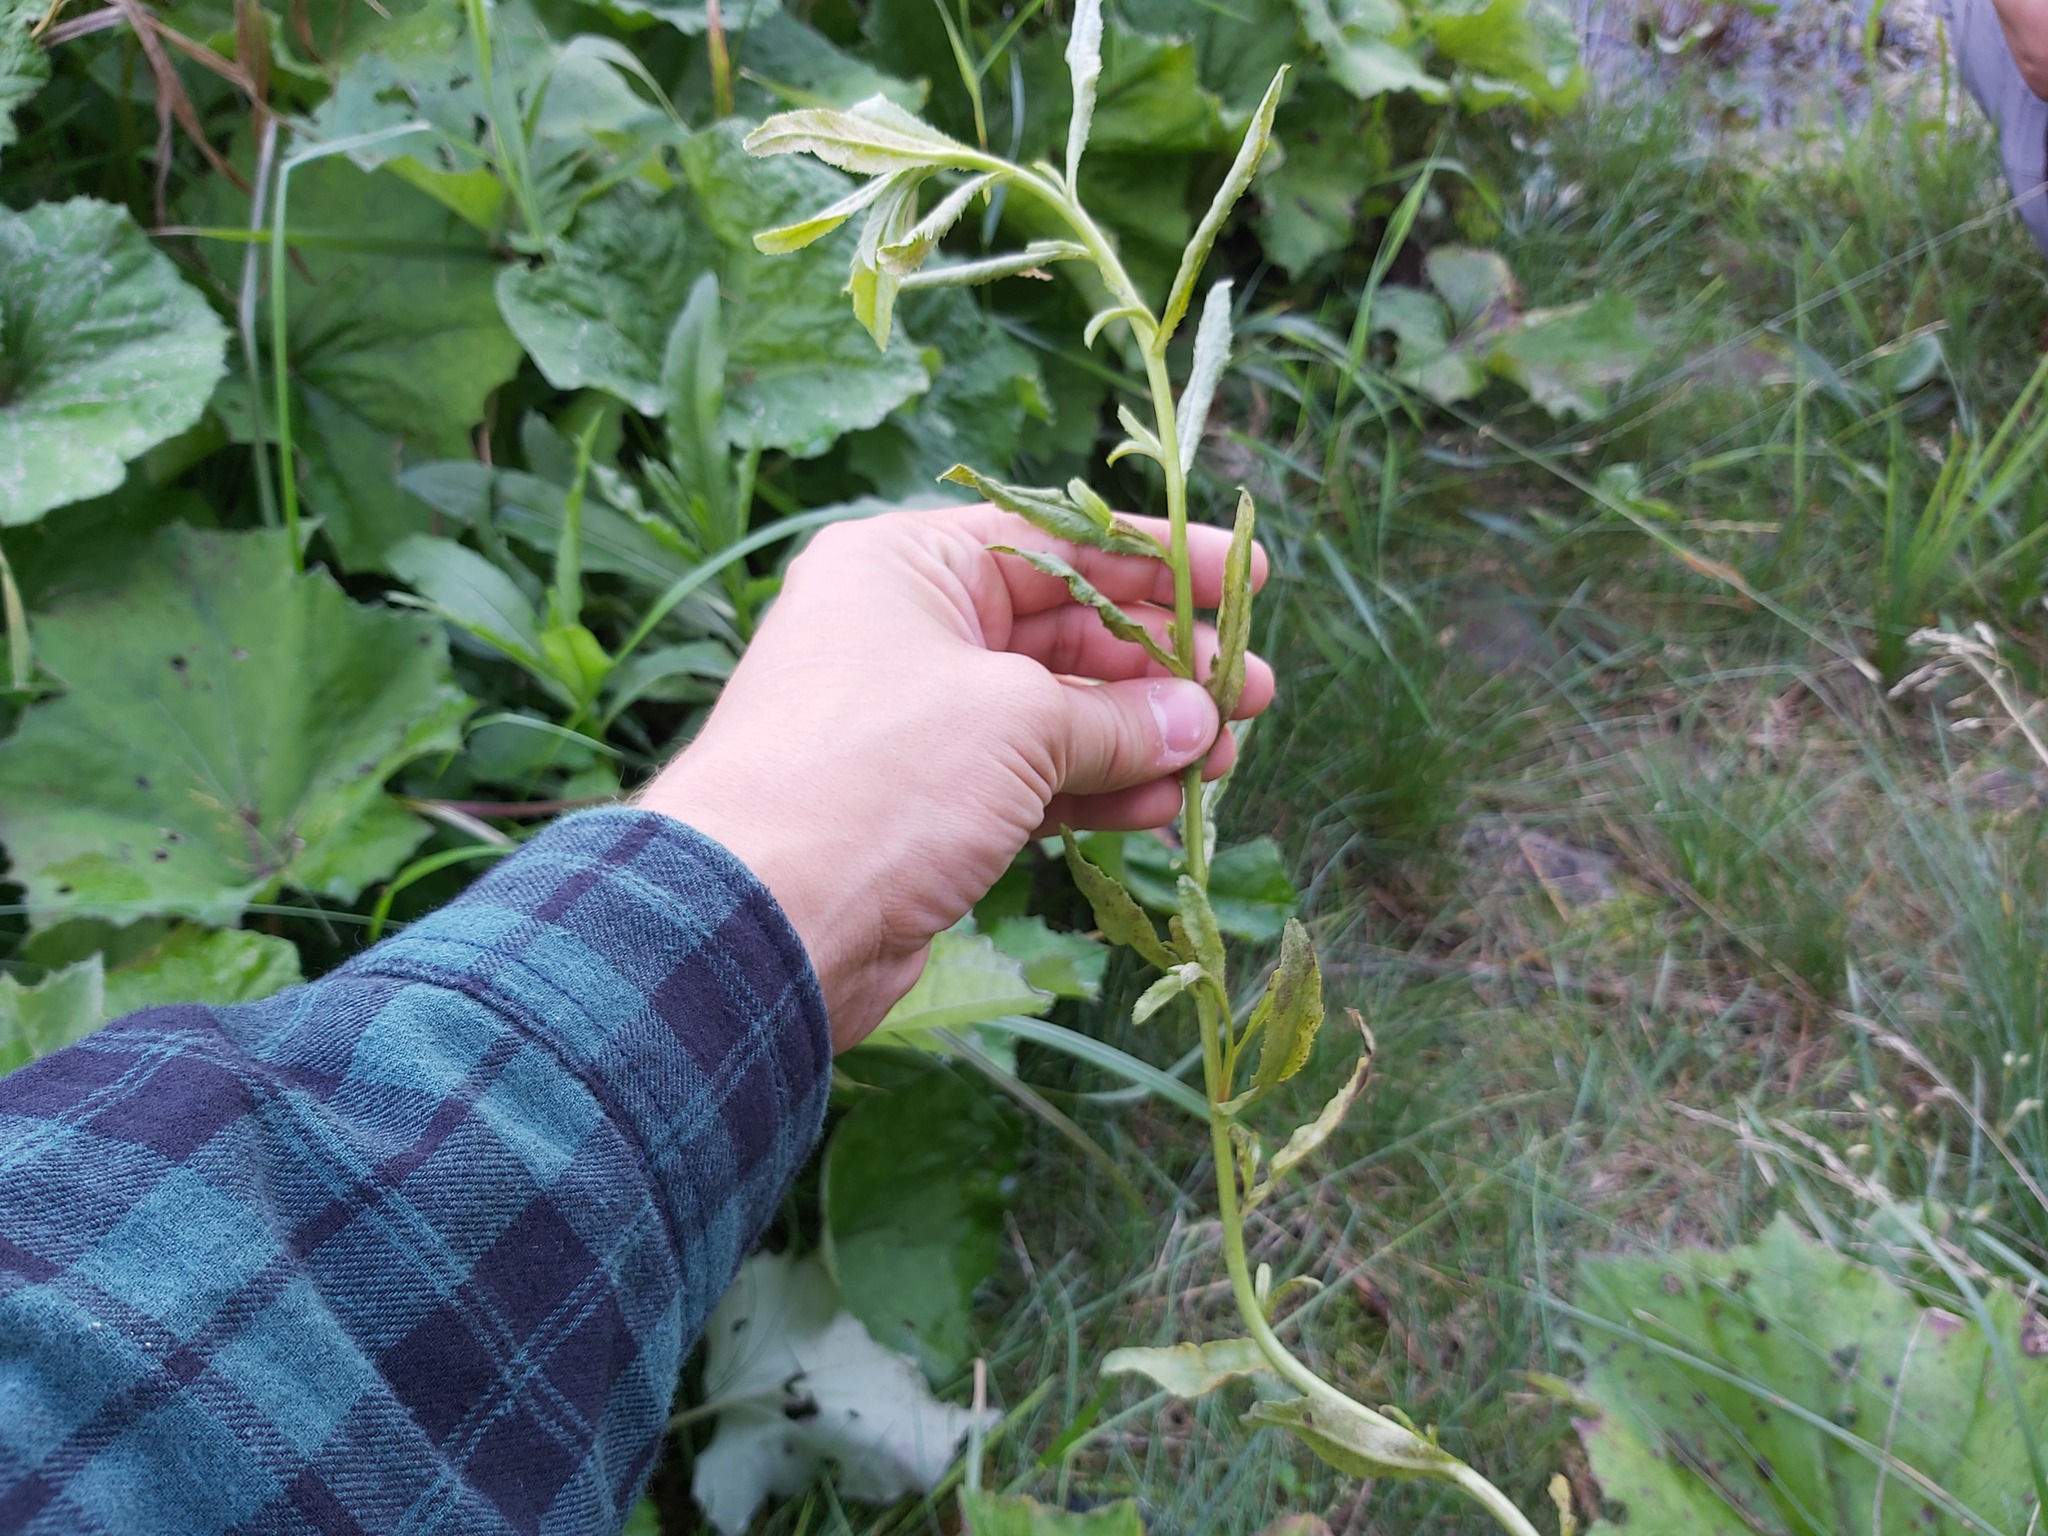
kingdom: Fungi
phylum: Basidiomycota
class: Pucciniomycetes
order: Pucciniales
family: Pucciniaceae
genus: Puccinia
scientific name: Puccinia suaveolens
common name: Thistle rust
